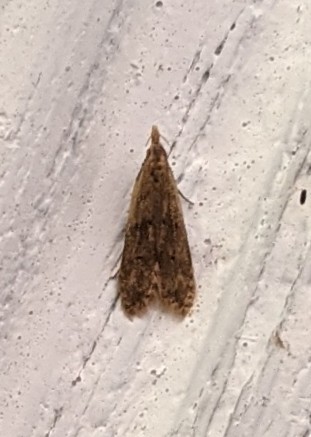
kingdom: Animalia
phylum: Arthropoda
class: Insecta
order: Lepidoptera
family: Gelechiidae
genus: Dichomeris
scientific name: Dichomeris punctipennella
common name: Many-spotted dichomeris moth
